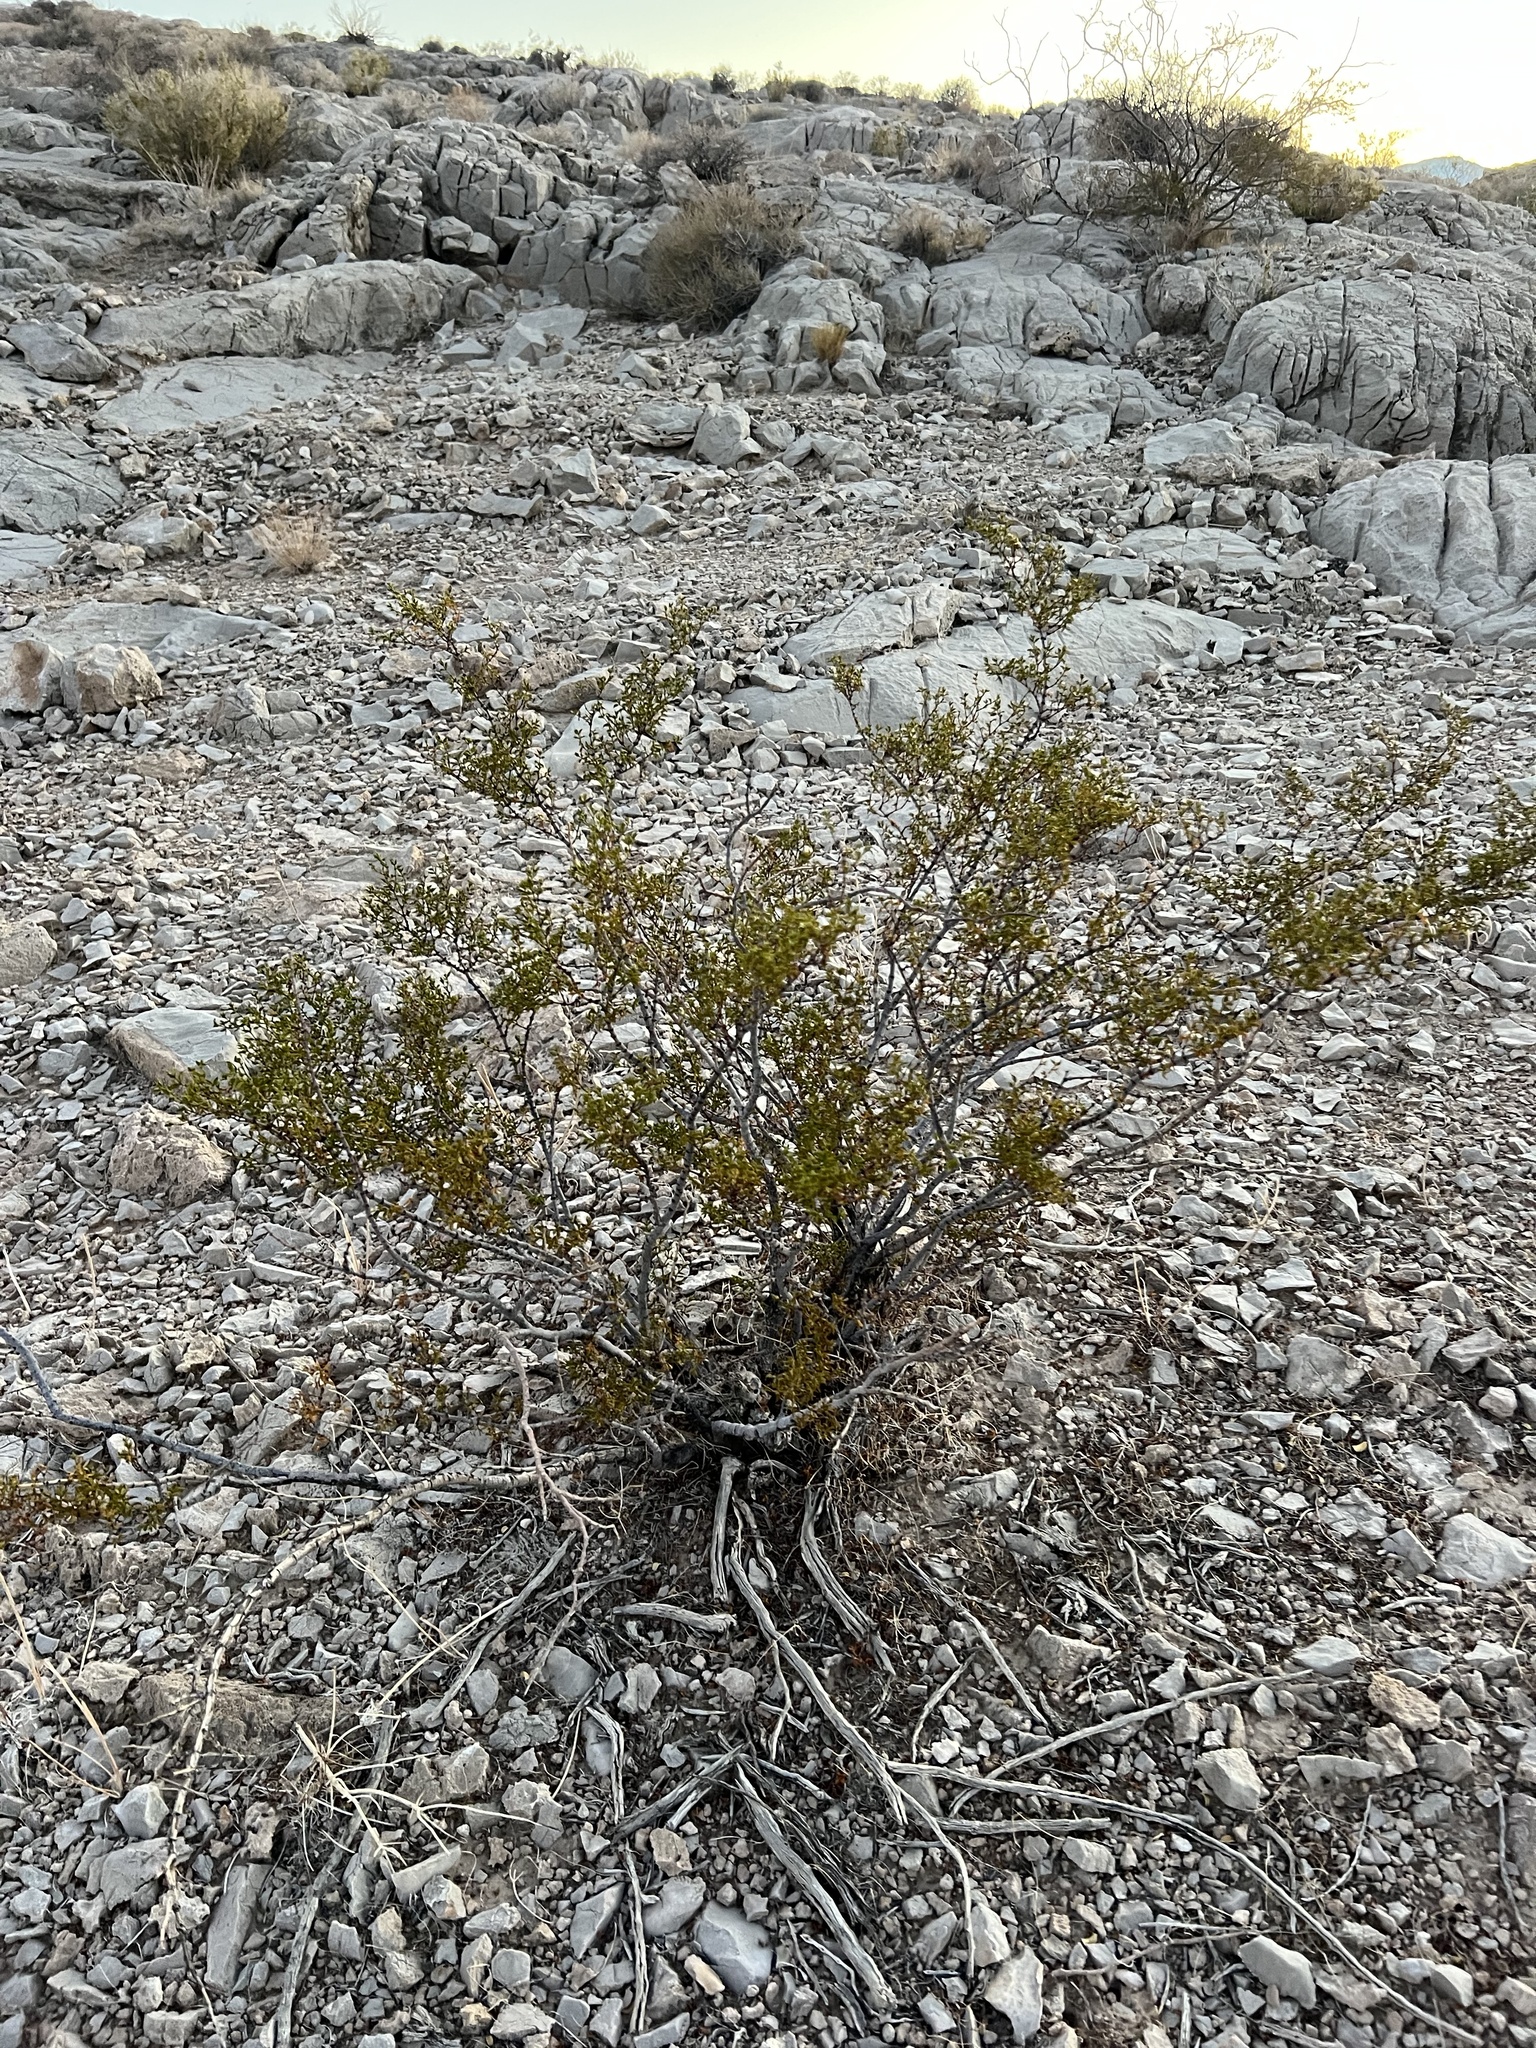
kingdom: Plantae
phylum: Tracheophyta
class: Magnoliopsida
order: Zygophyllales
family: Zygophyllaceae
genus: Larrea
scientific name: Larrea tridentata
